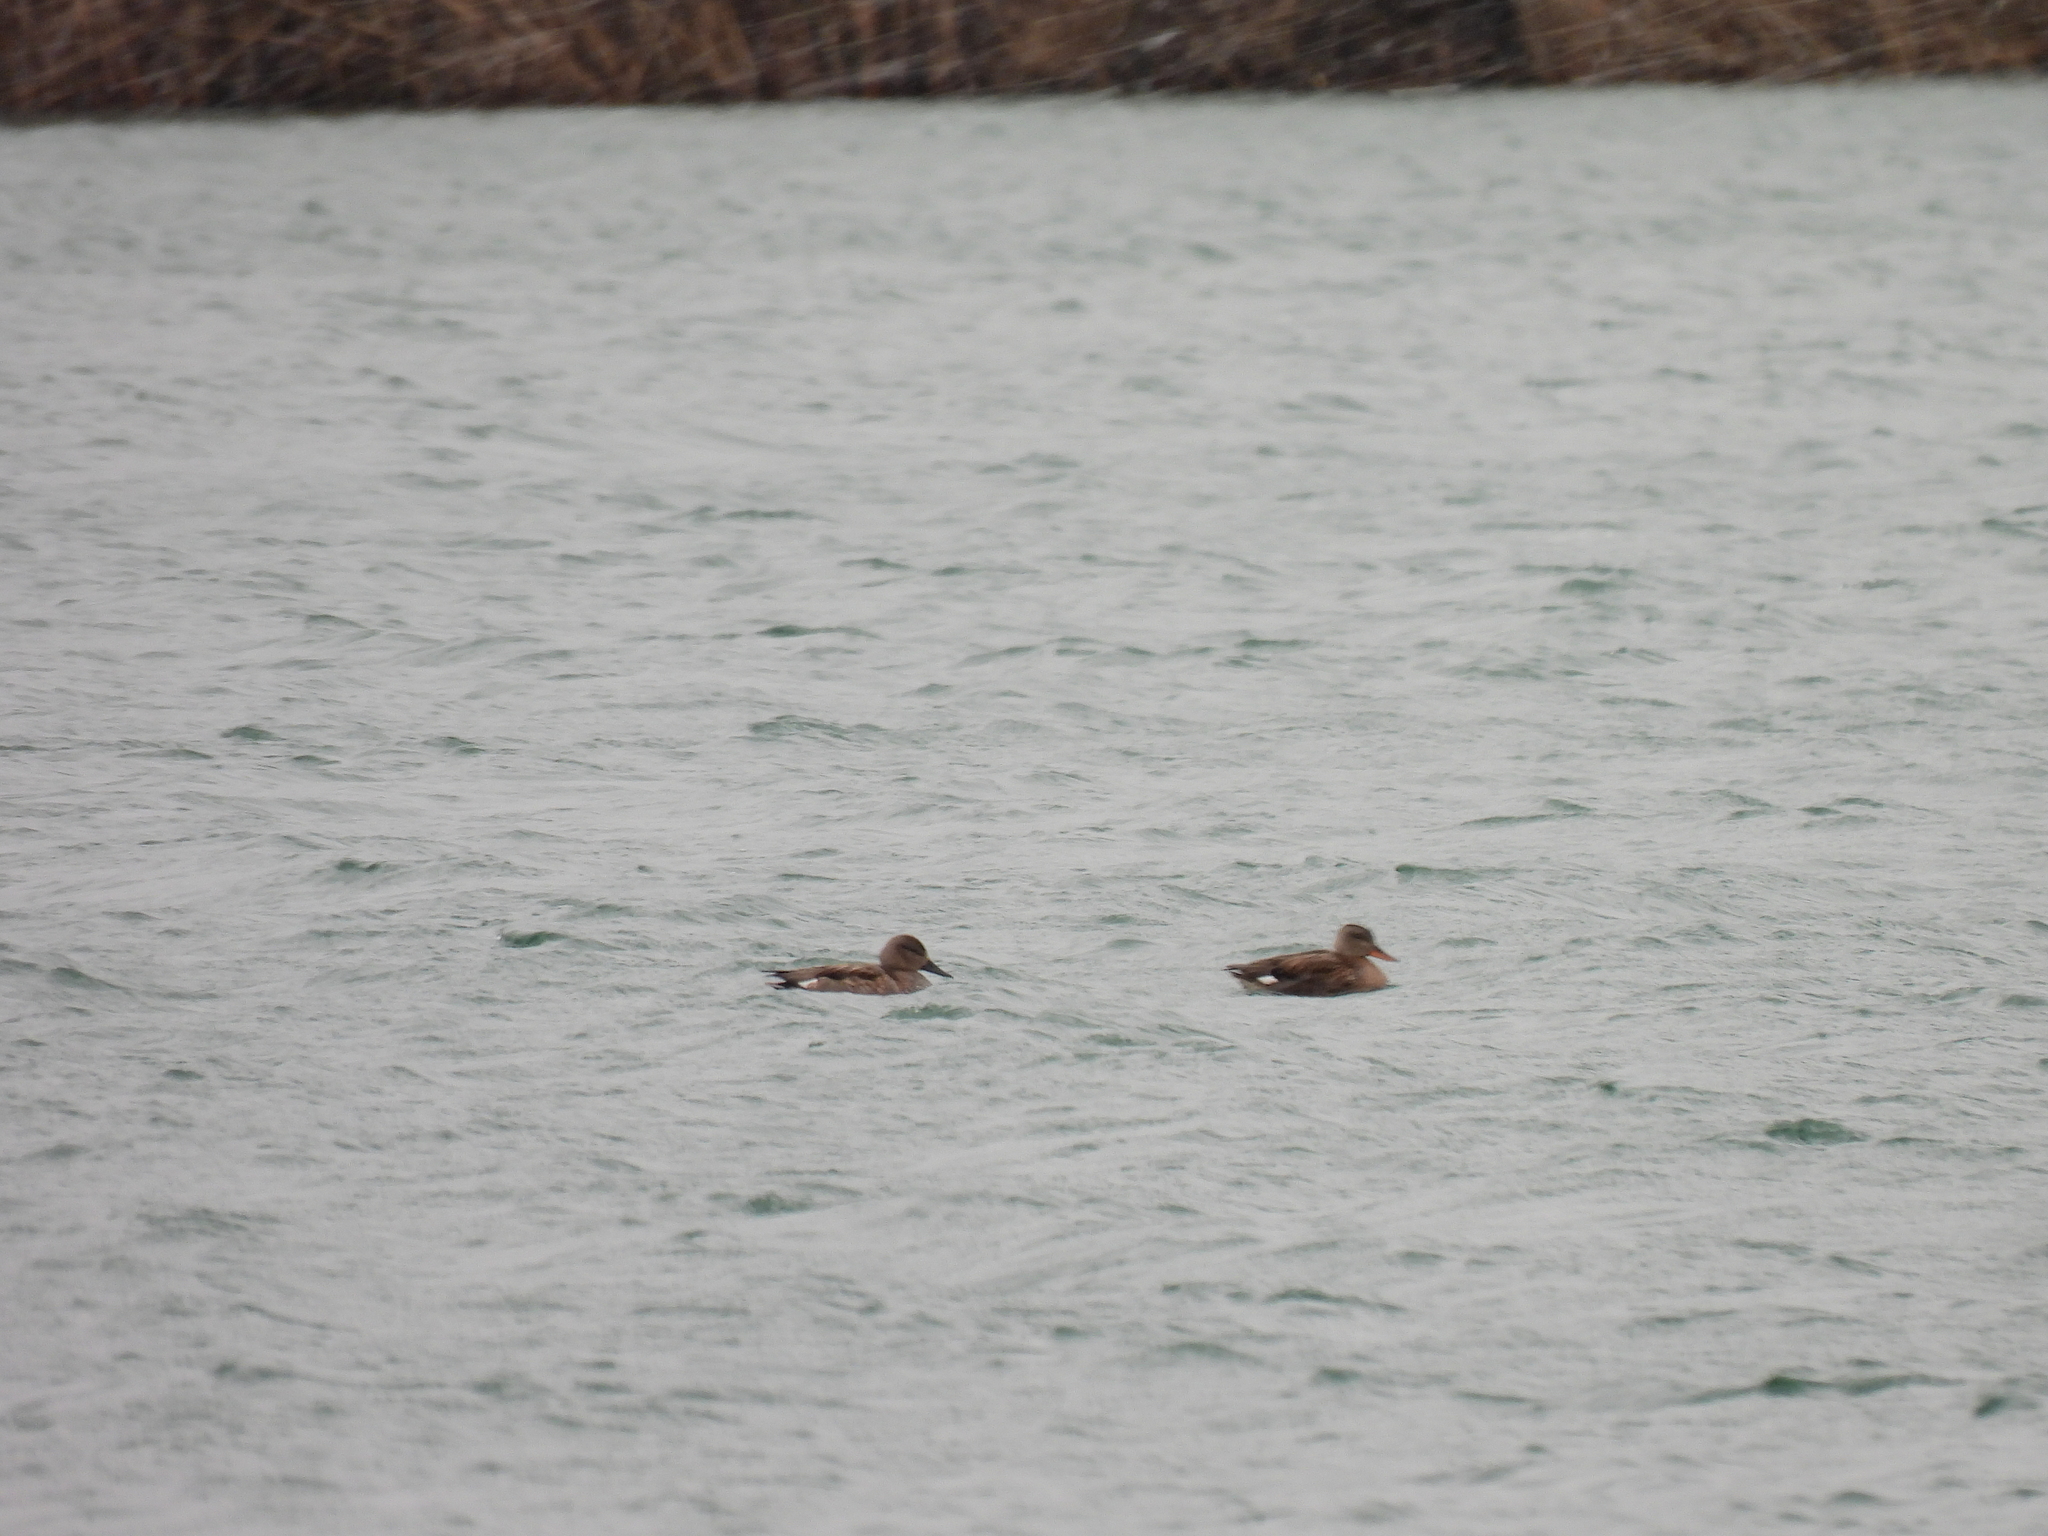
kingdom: Animalia
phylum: Chordata
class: Aves
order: Anseriformes
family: Anatidae
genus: Mareca
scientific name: Mareca strepera
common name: Gadwall
